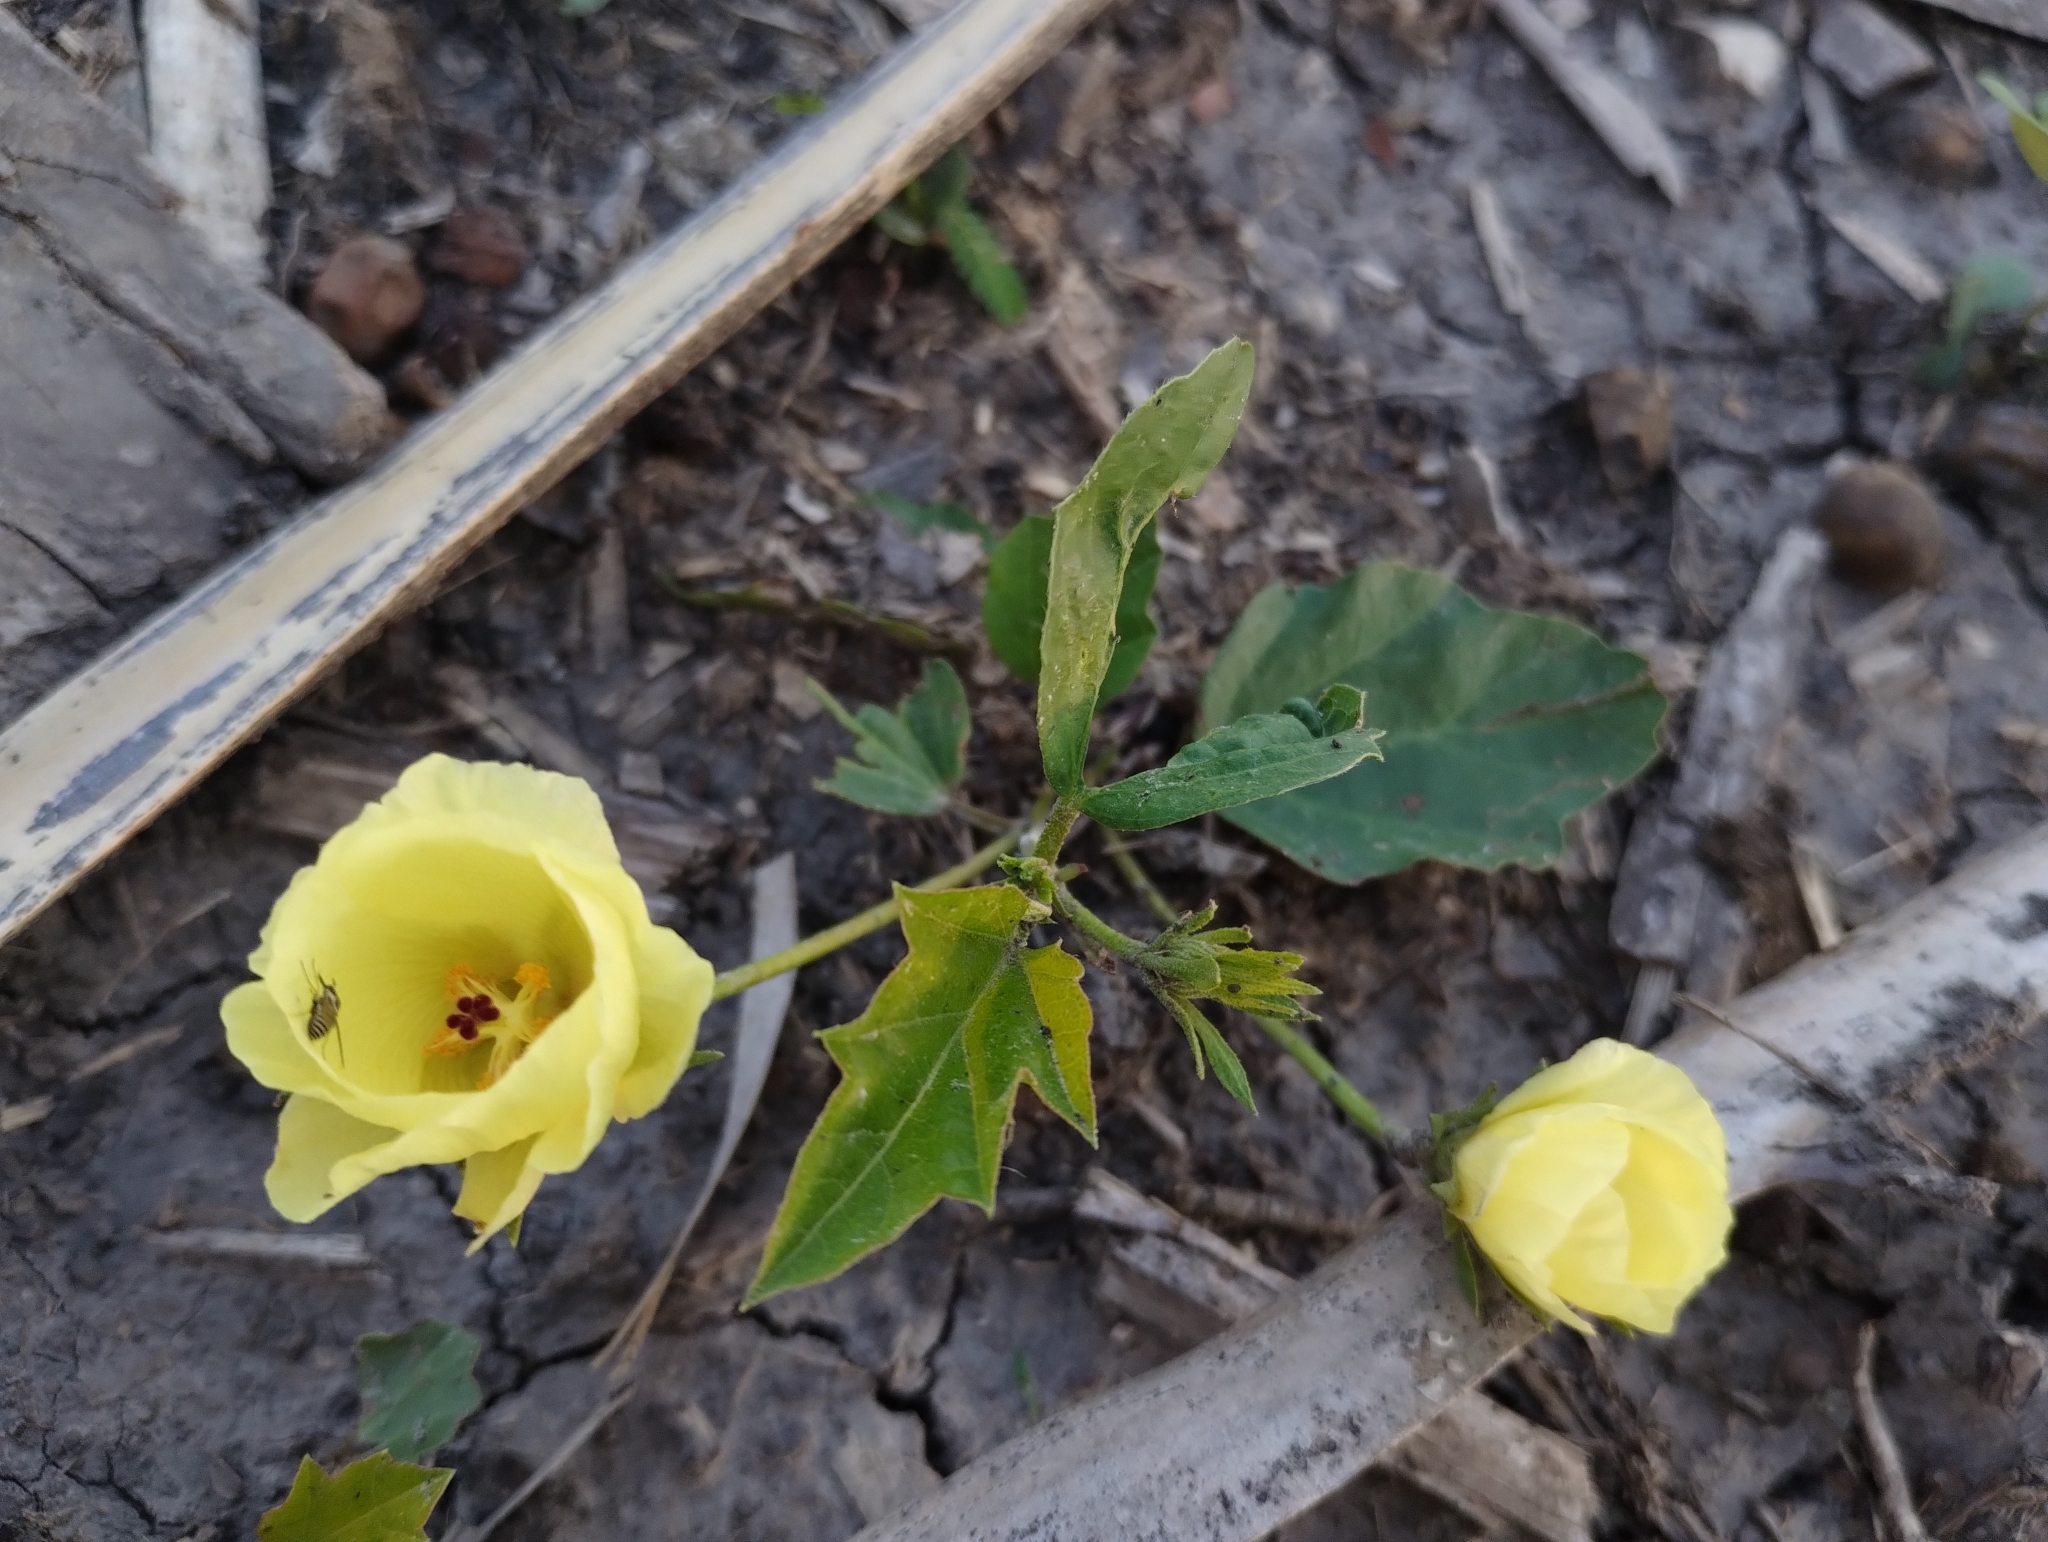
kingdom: Plantae
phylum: Tracheophyta
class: Magnoliopsida
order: Malvales
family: Malvaceae
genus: Cienfuegosia
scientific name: Cienfuegosia drummondii
